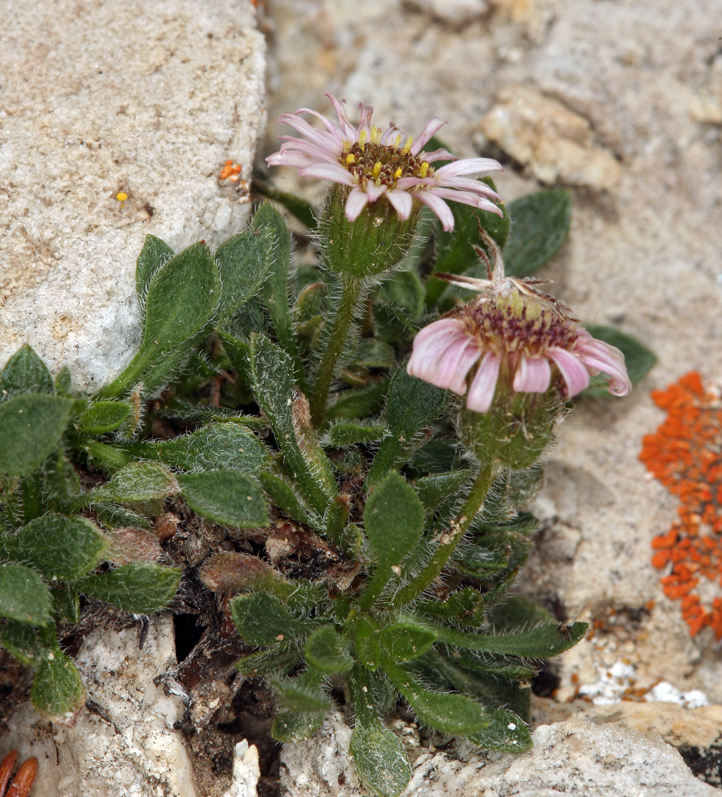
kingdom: Plantae
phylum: Tracheophyta
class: Magnoliopsida
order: Asterales
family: Asteraceae
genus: Erigeron
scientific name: Erigeron uncialis
